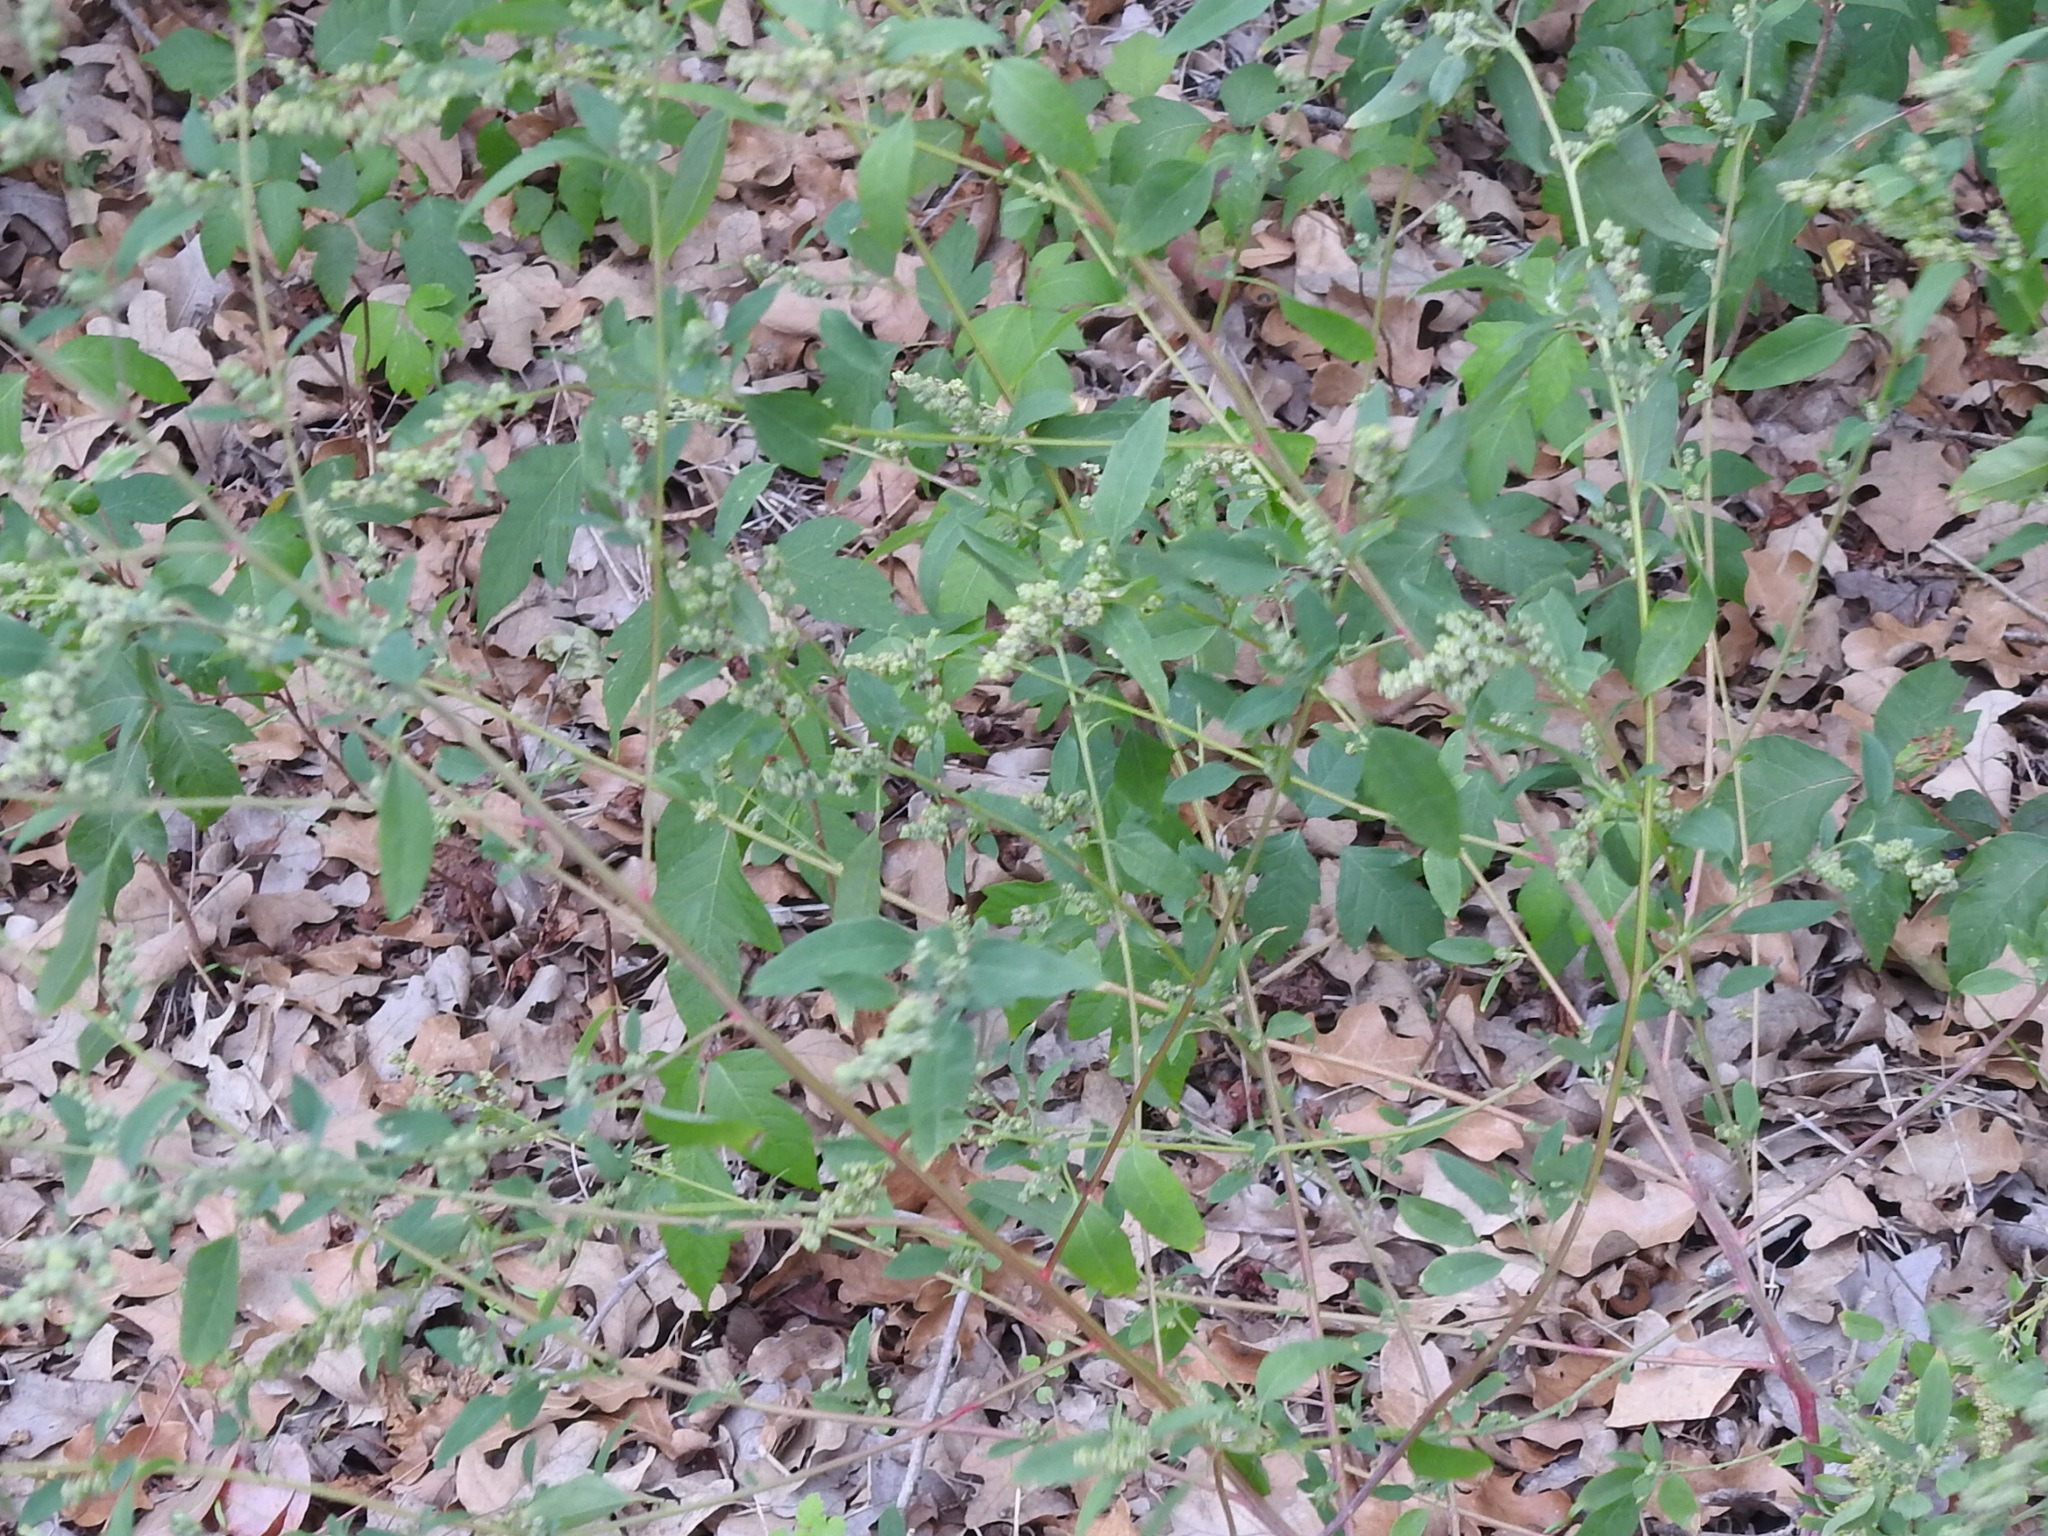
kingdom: Plantae
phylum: Tracheophyta
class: Magnoliopsida
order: Caryophyllales
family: Amaranthaceae
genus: Chenopodium
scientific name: Chenopodium album
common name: Fat-hen
